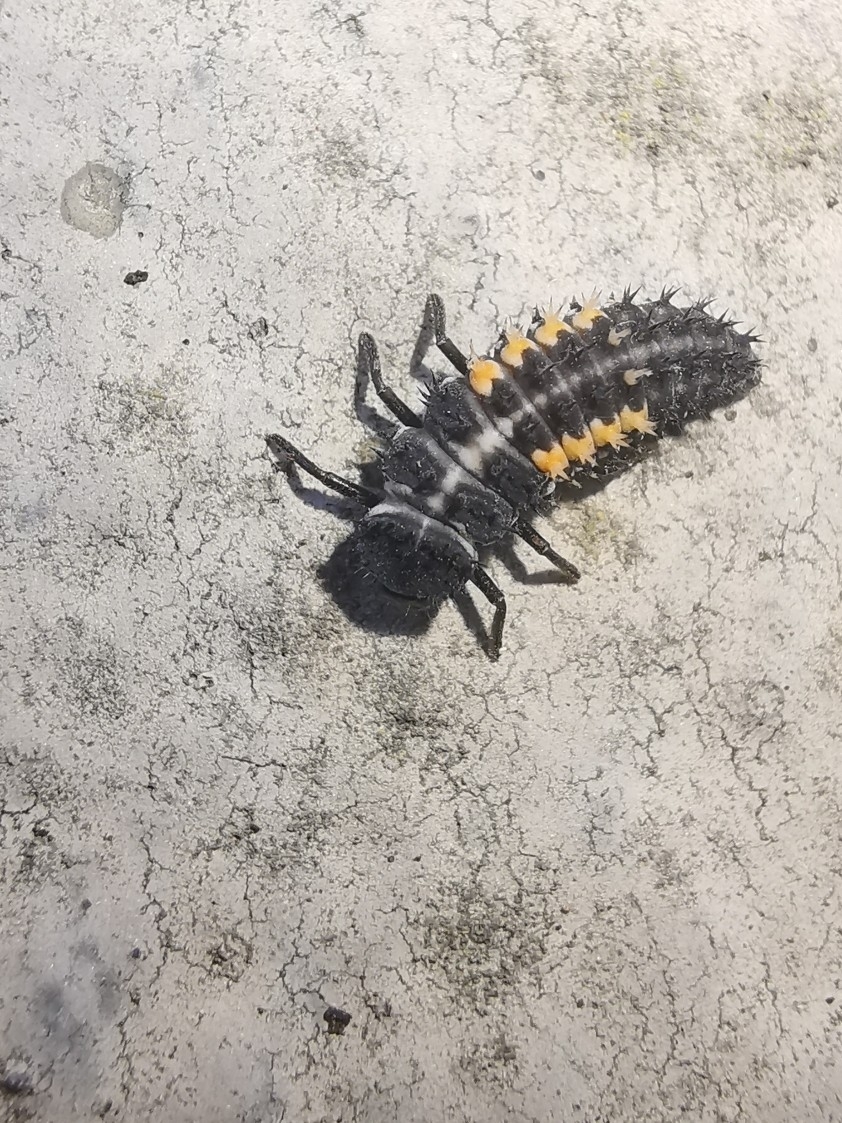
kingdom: Animalia
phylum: Arthropoda
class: Insecta
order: Coleoptera
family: Coccinellidae
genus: Harmonia
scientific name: Harmonia quadripunctata
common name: Cream-streaked ladybird
